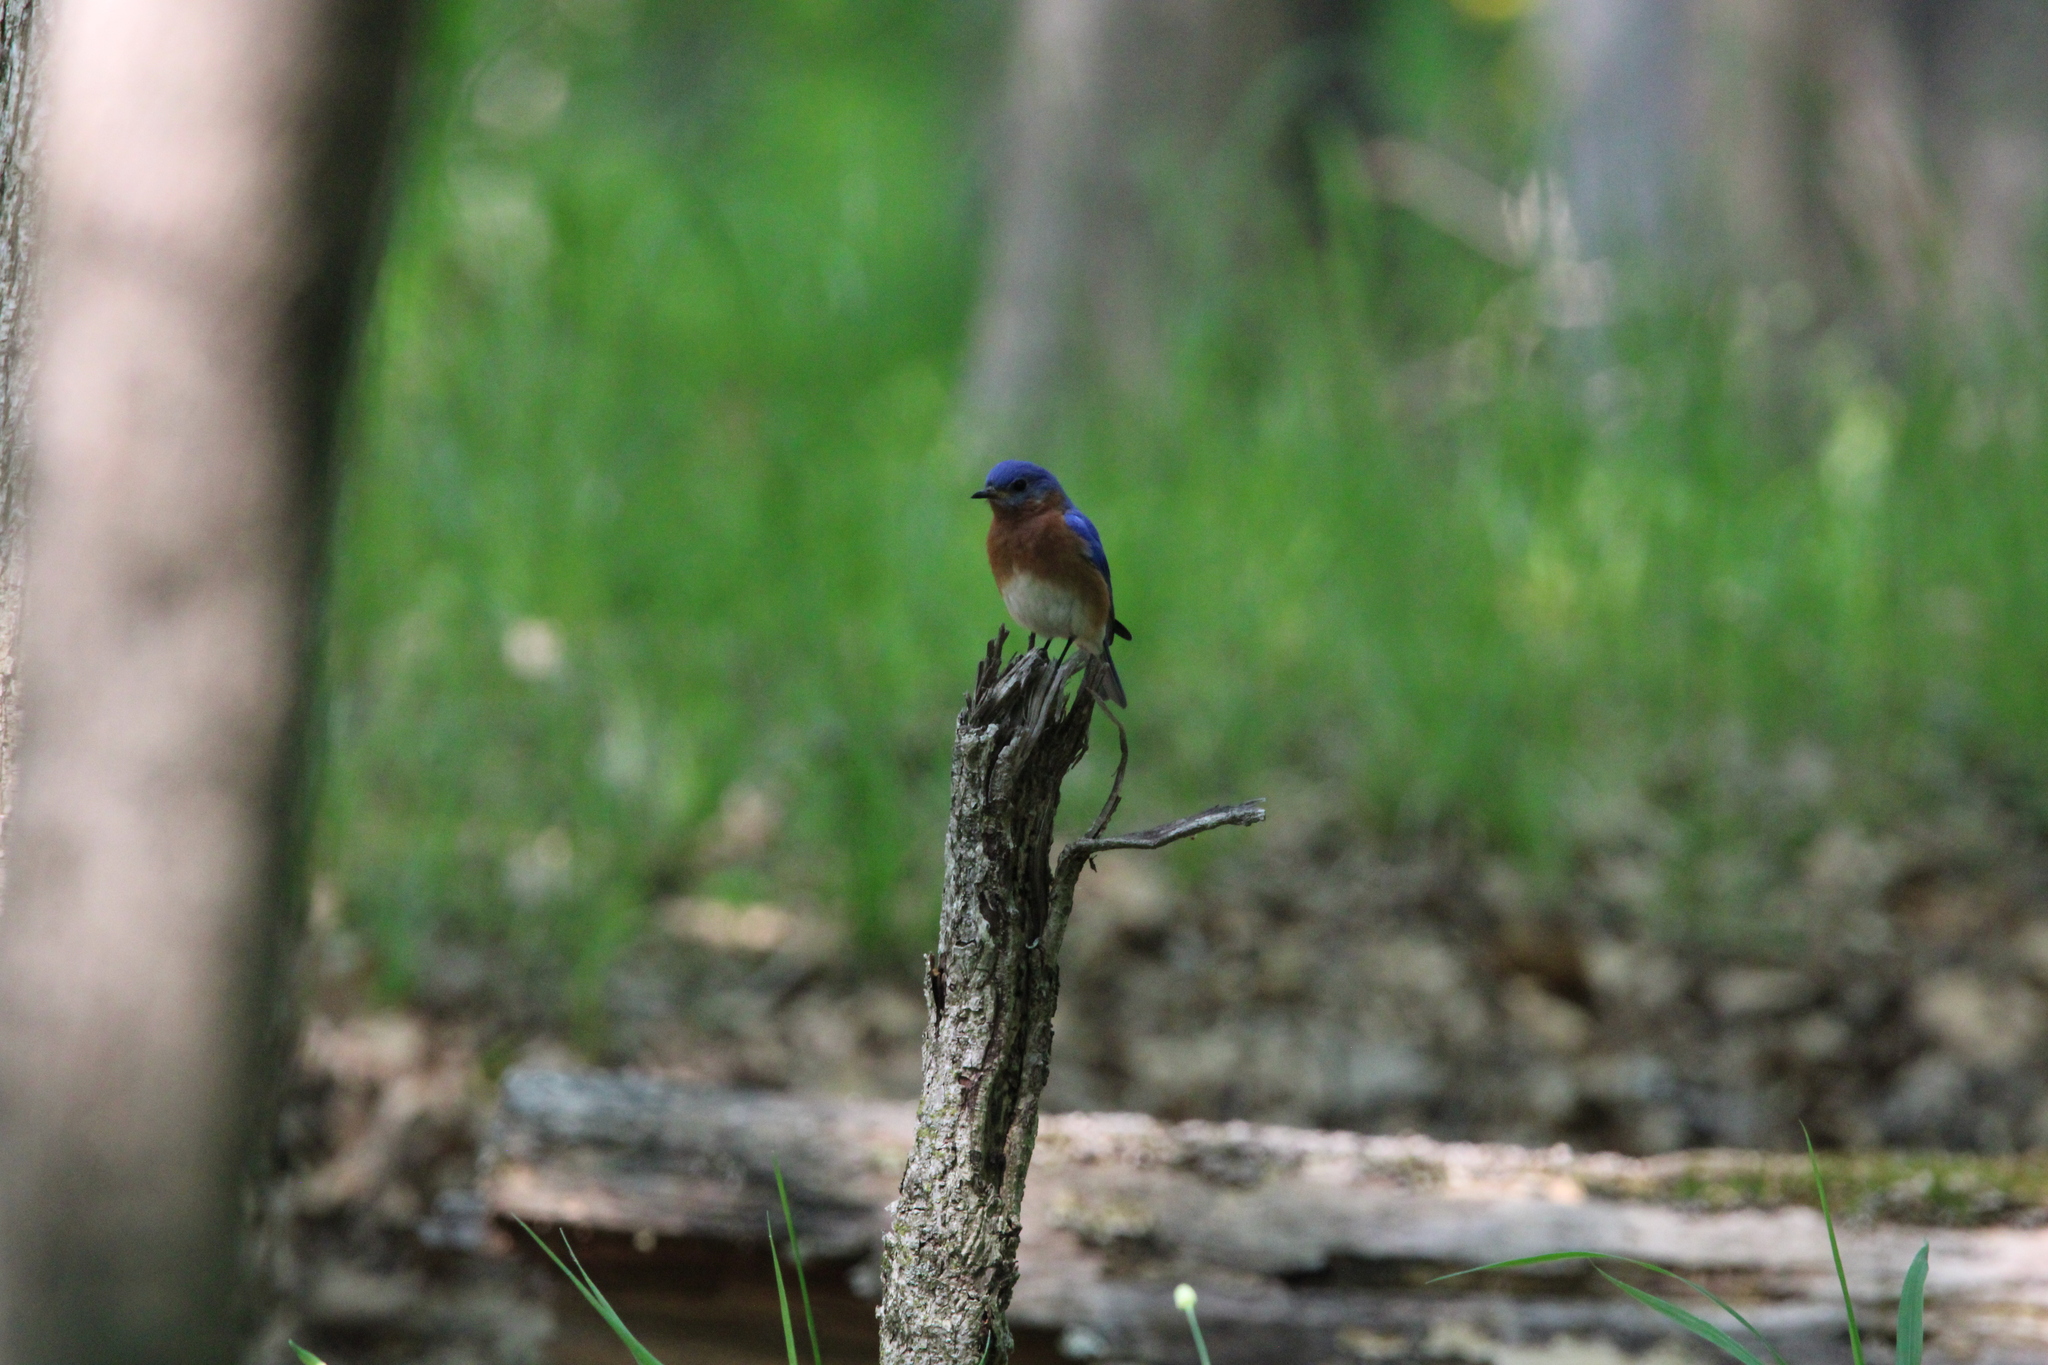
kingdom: Animalia
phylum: Chordata
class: Aves
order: Passeriformes
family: Turdidae
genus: Sialia
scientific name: Sialia sialis
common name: Eastern bluebird
